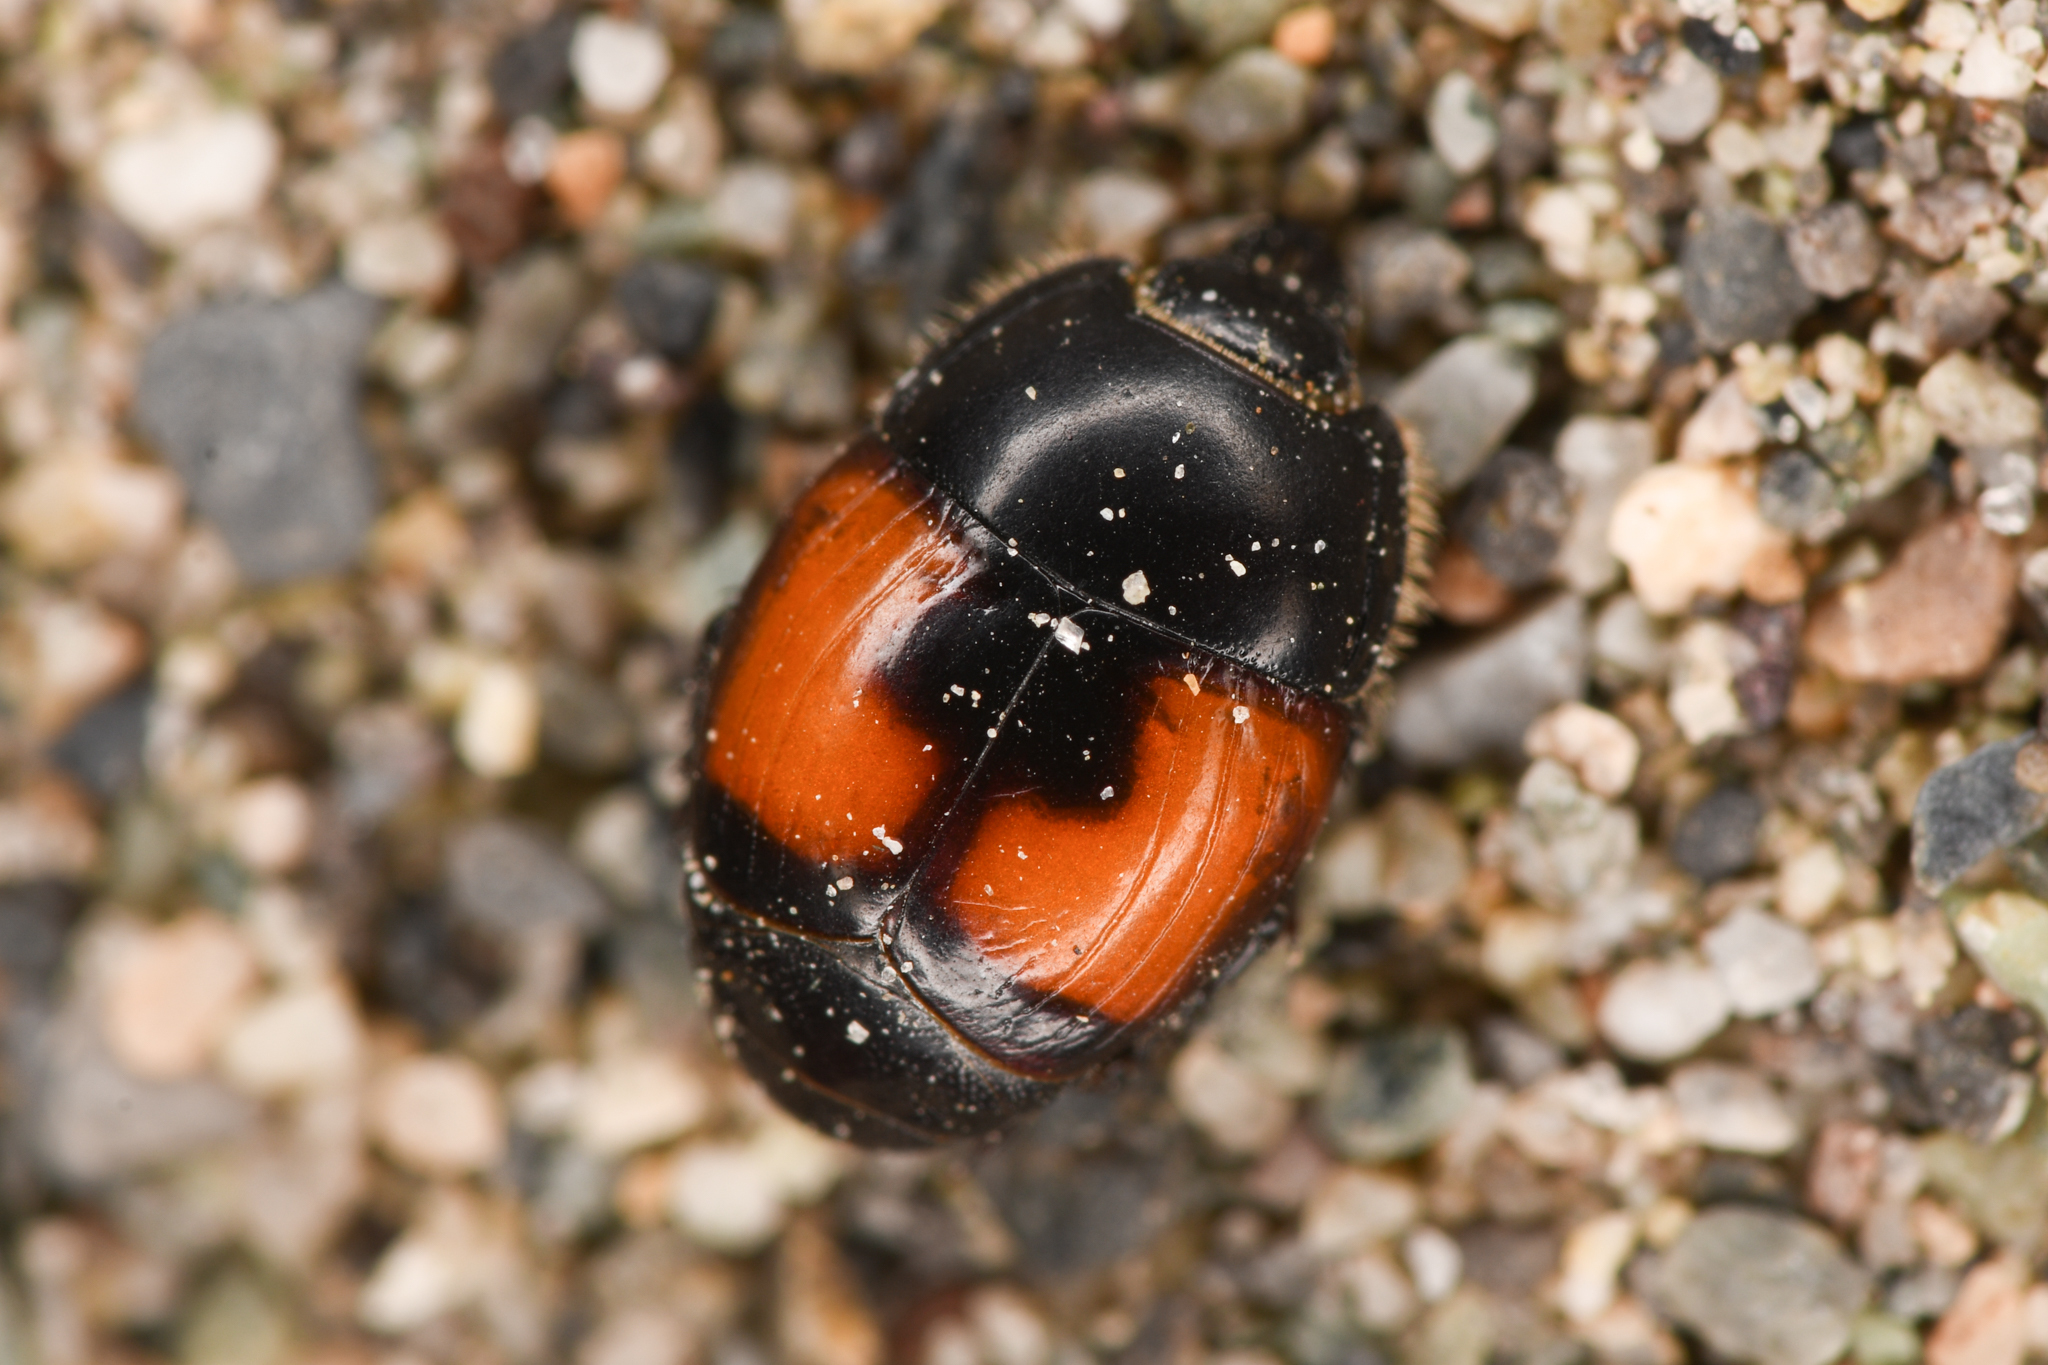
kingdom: Animalia
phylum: Arthropoda
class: Insecta
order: Coleoptera
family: Histeridae
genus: Spilodiscus
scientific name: Spilodiscus instratus
